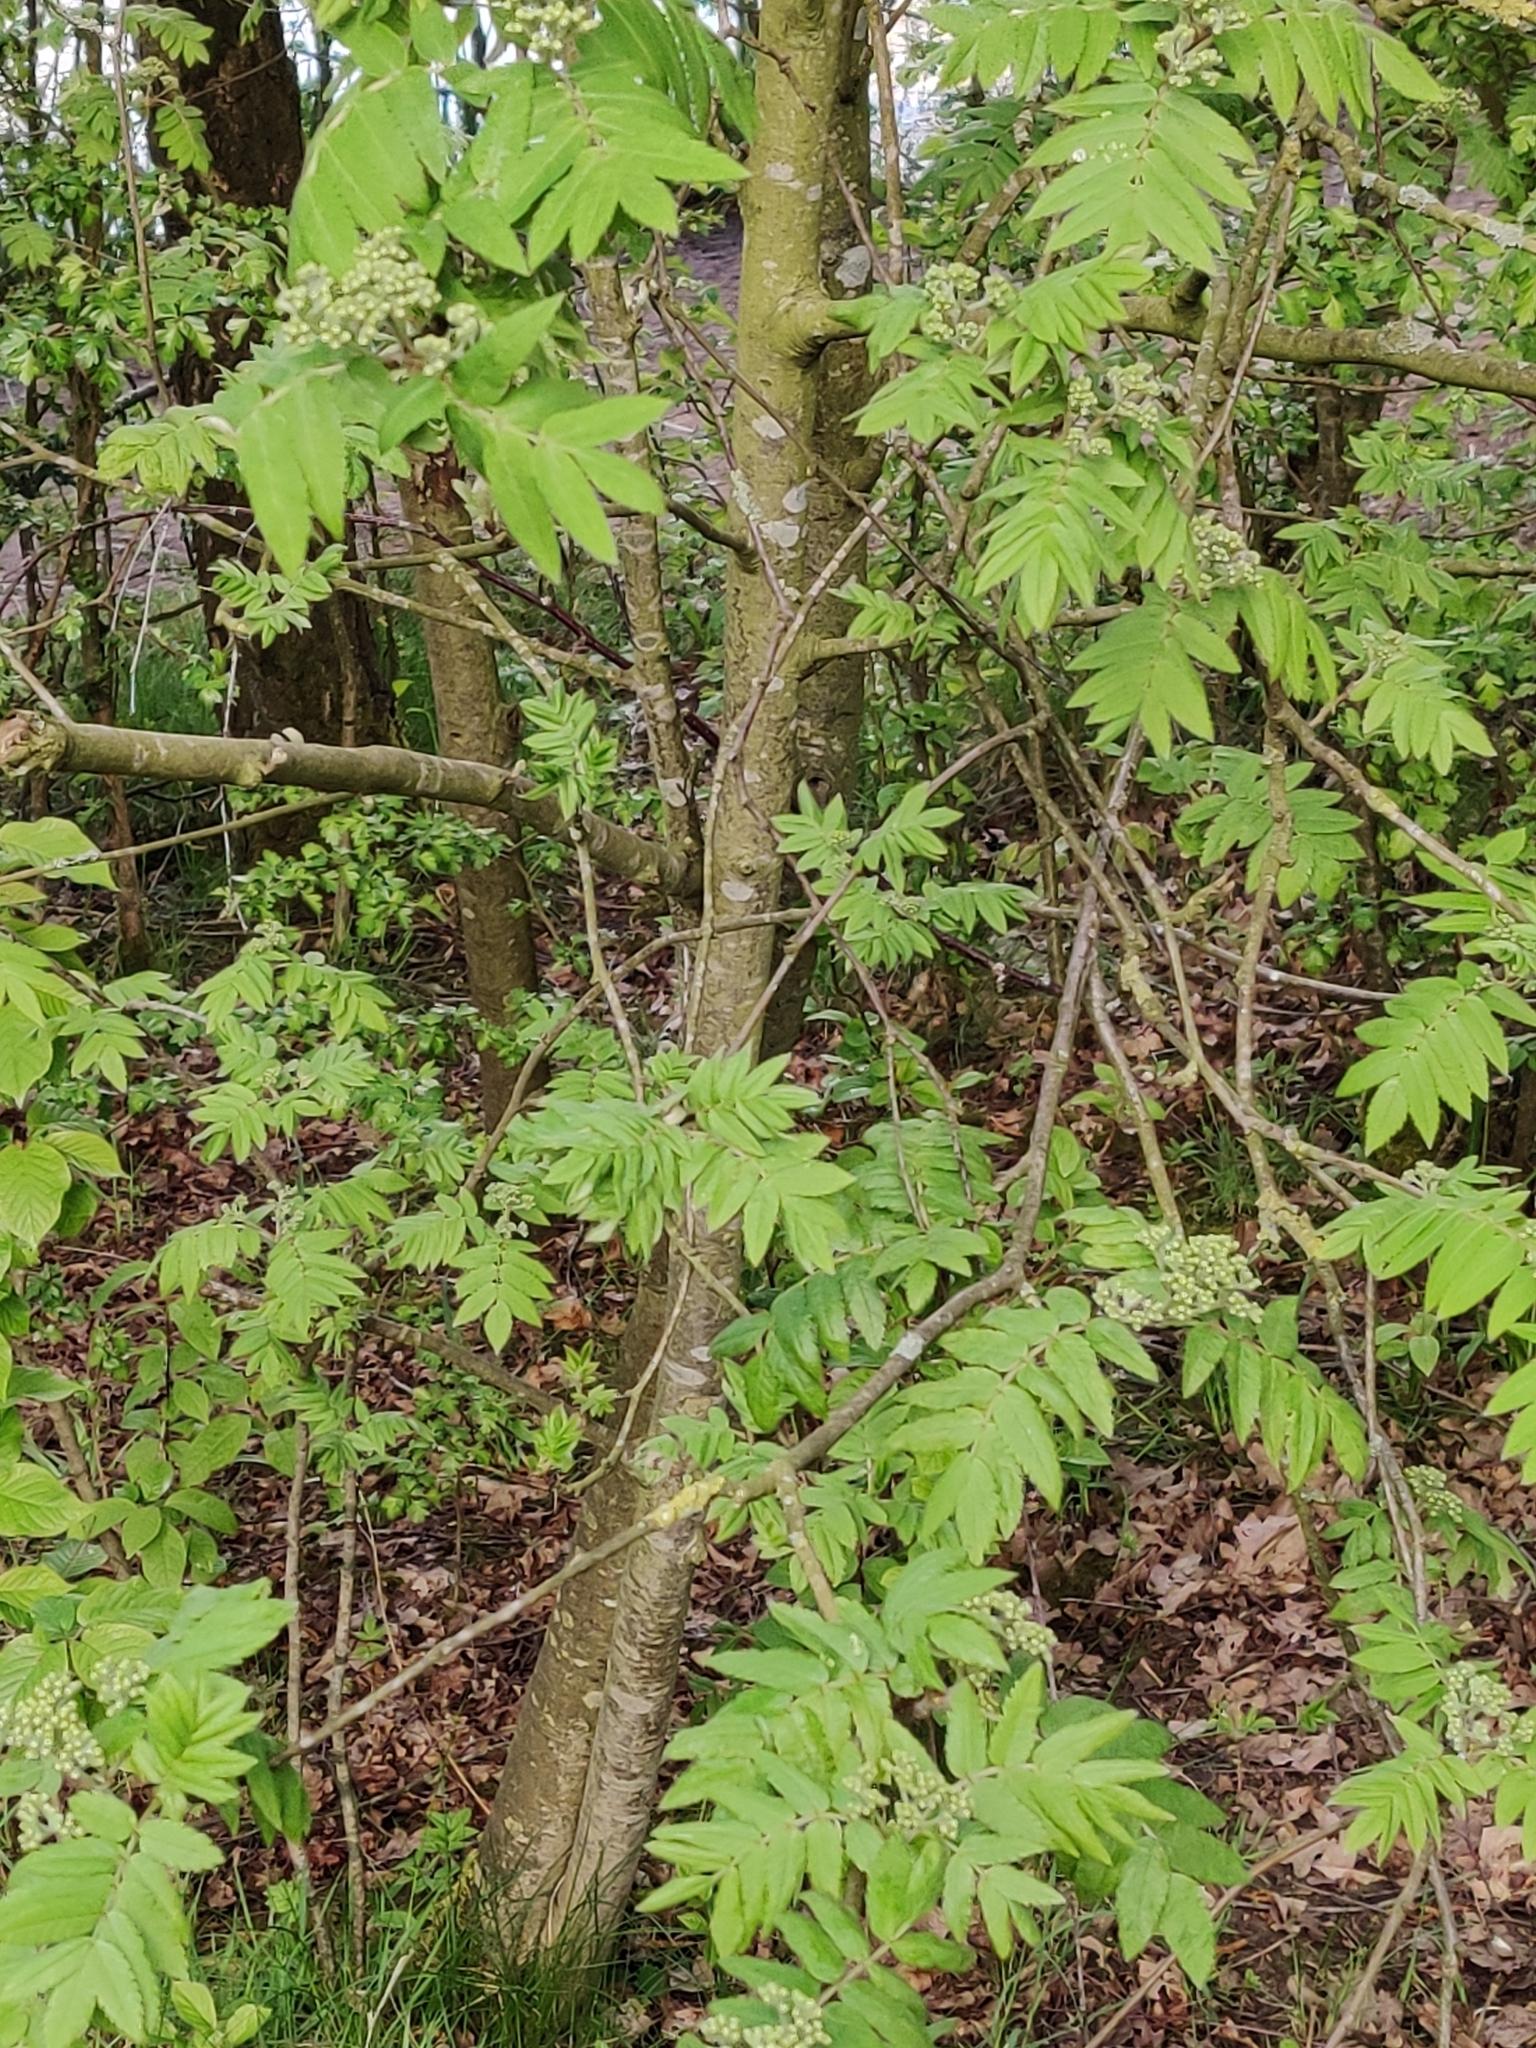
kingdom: Plantae
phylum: Tracheophyta
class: Magnoliopsida
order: Rosales
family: Rosaceae
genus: Sorbus
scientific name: Sorbus aucuparia
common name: Rowan
